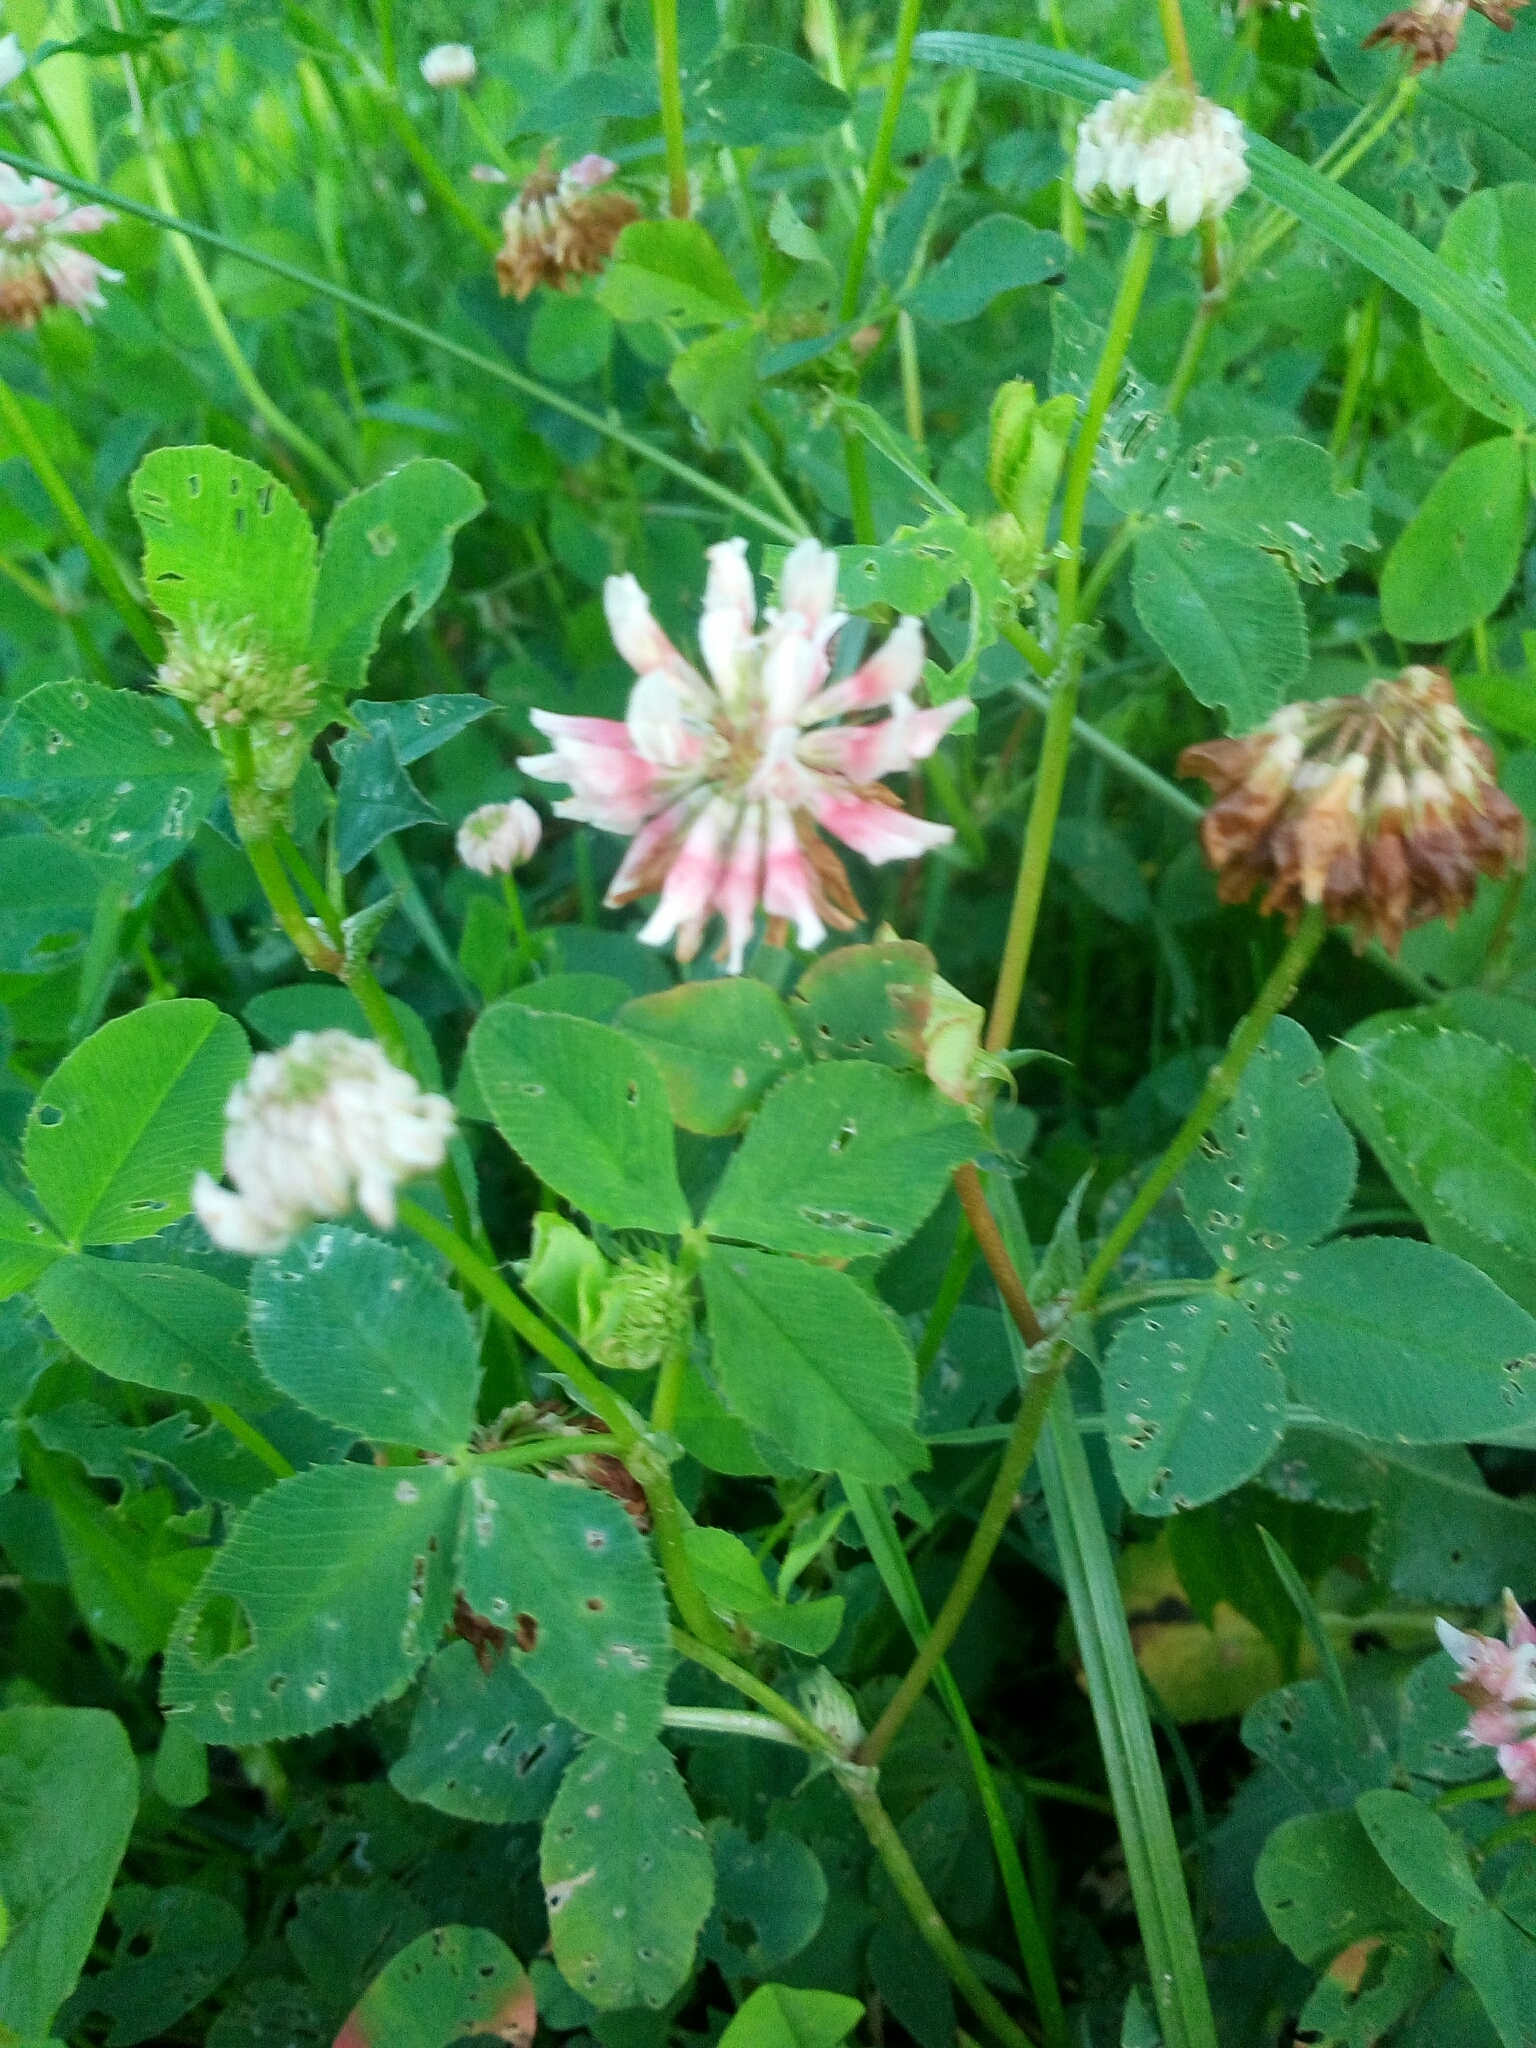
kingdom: Plantae
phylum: Tracheophyta
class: Magnoliopsida
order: Fabales
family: Fabaceae
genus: Trifolium
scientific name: Trifolium hybridum
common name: Alsike clover
